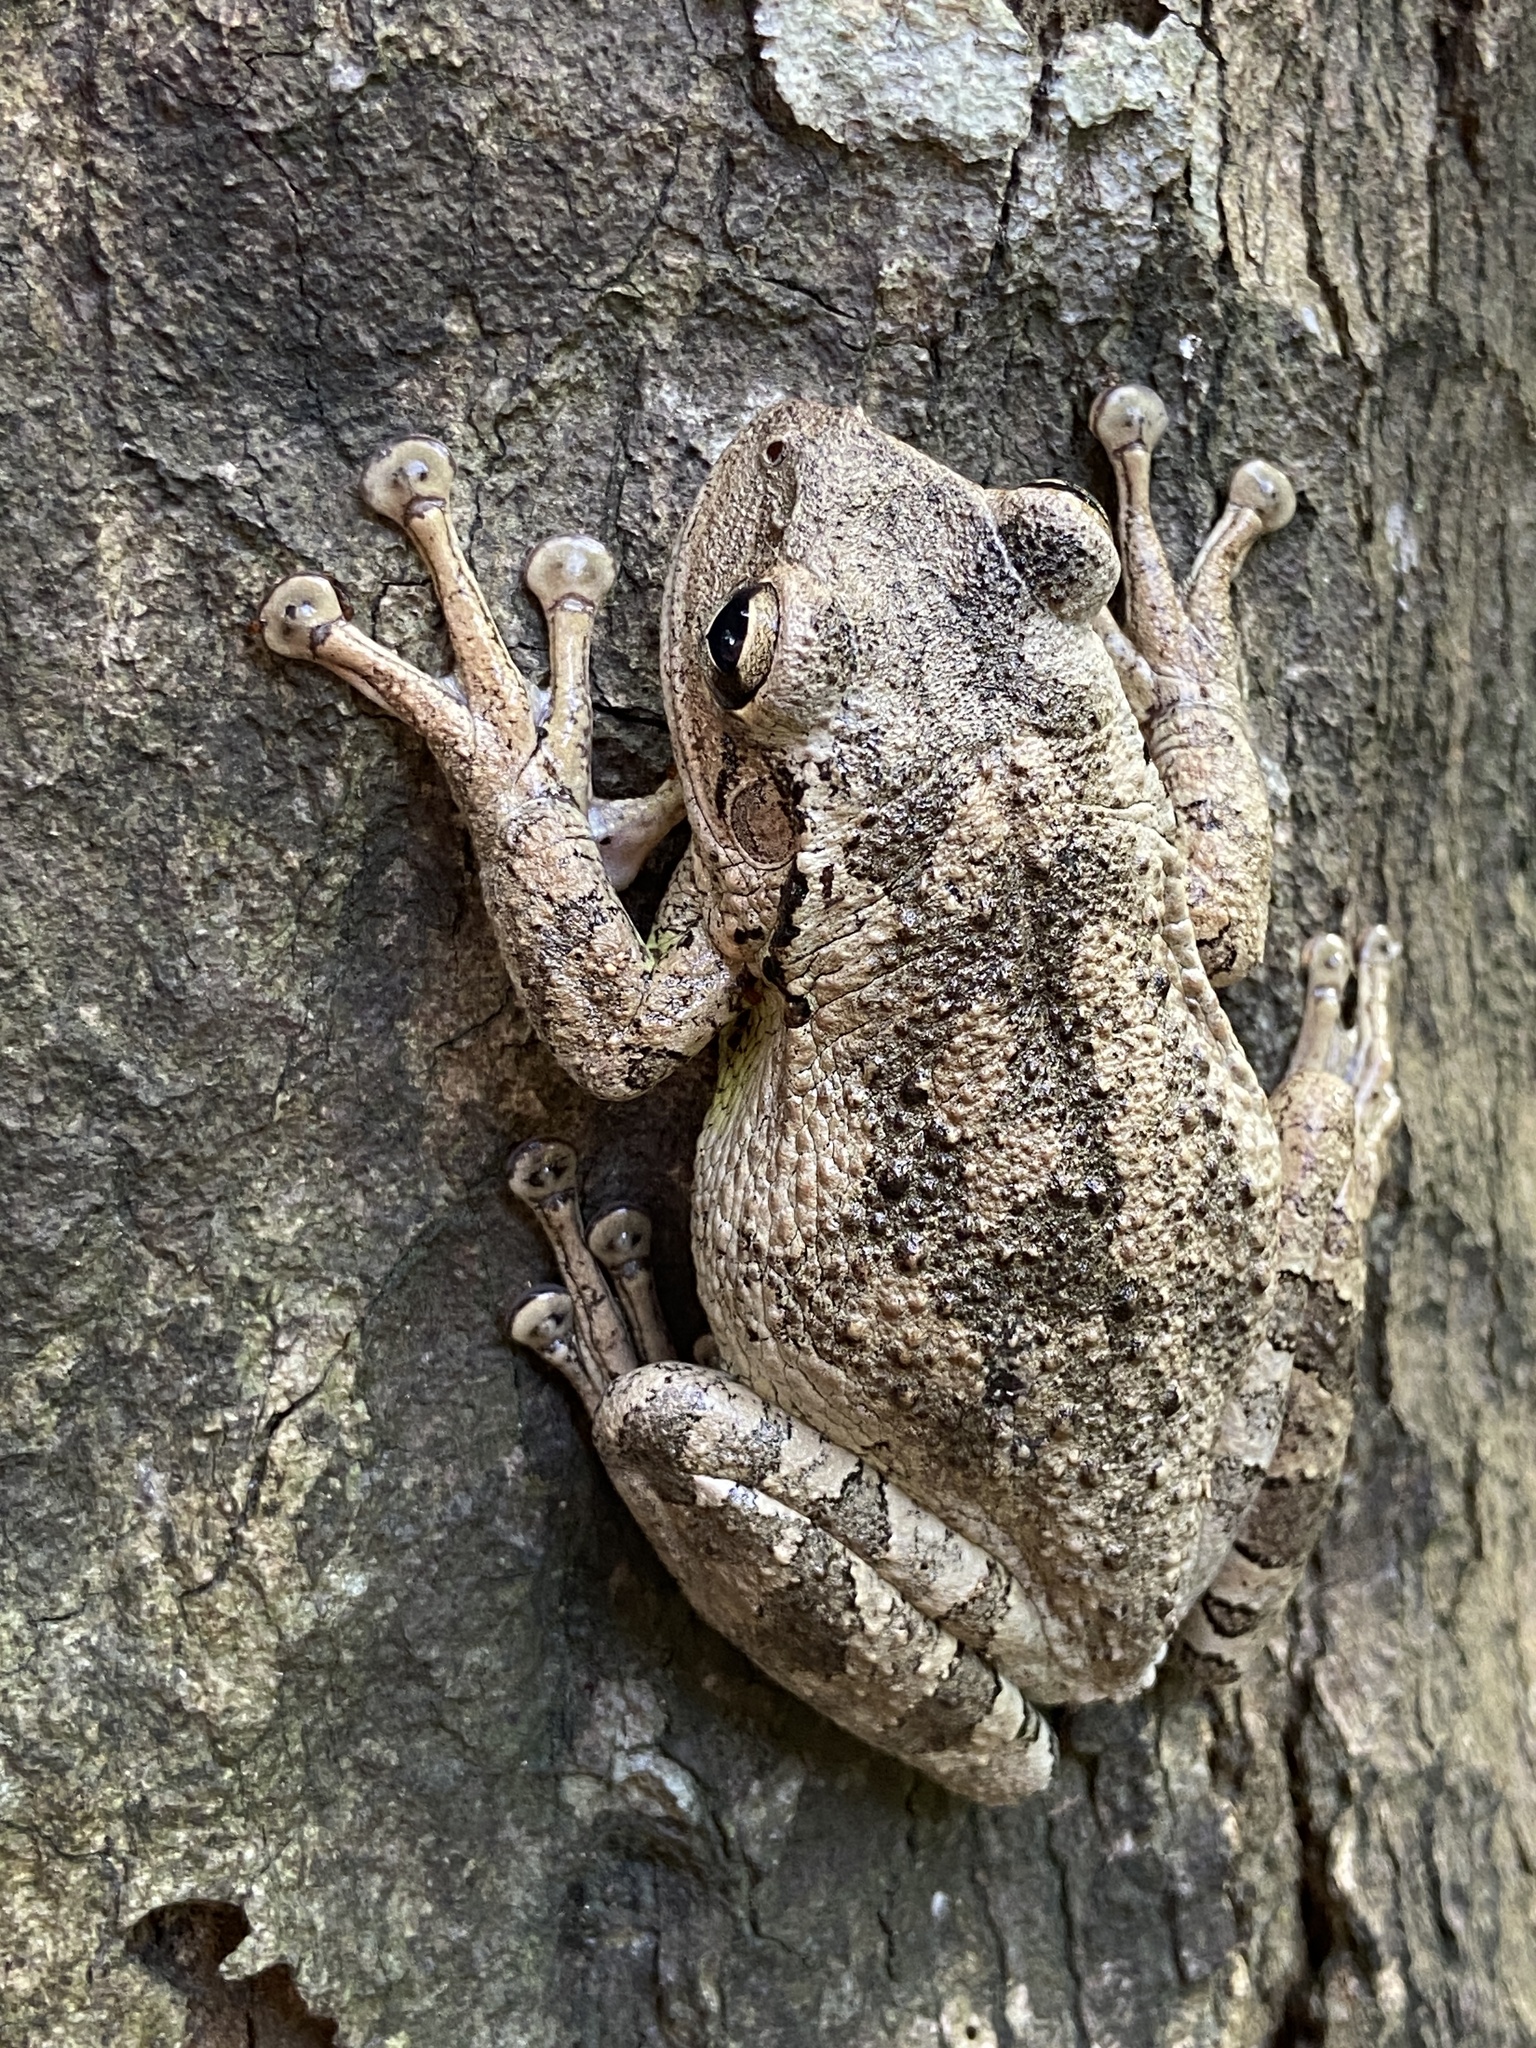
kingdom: Animalia
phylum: Chordata
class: Amphibia
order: Anura
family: Hylidae
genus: Osteopilus
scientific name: Osteopilus septentrionalis
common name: Cuban treefrog
